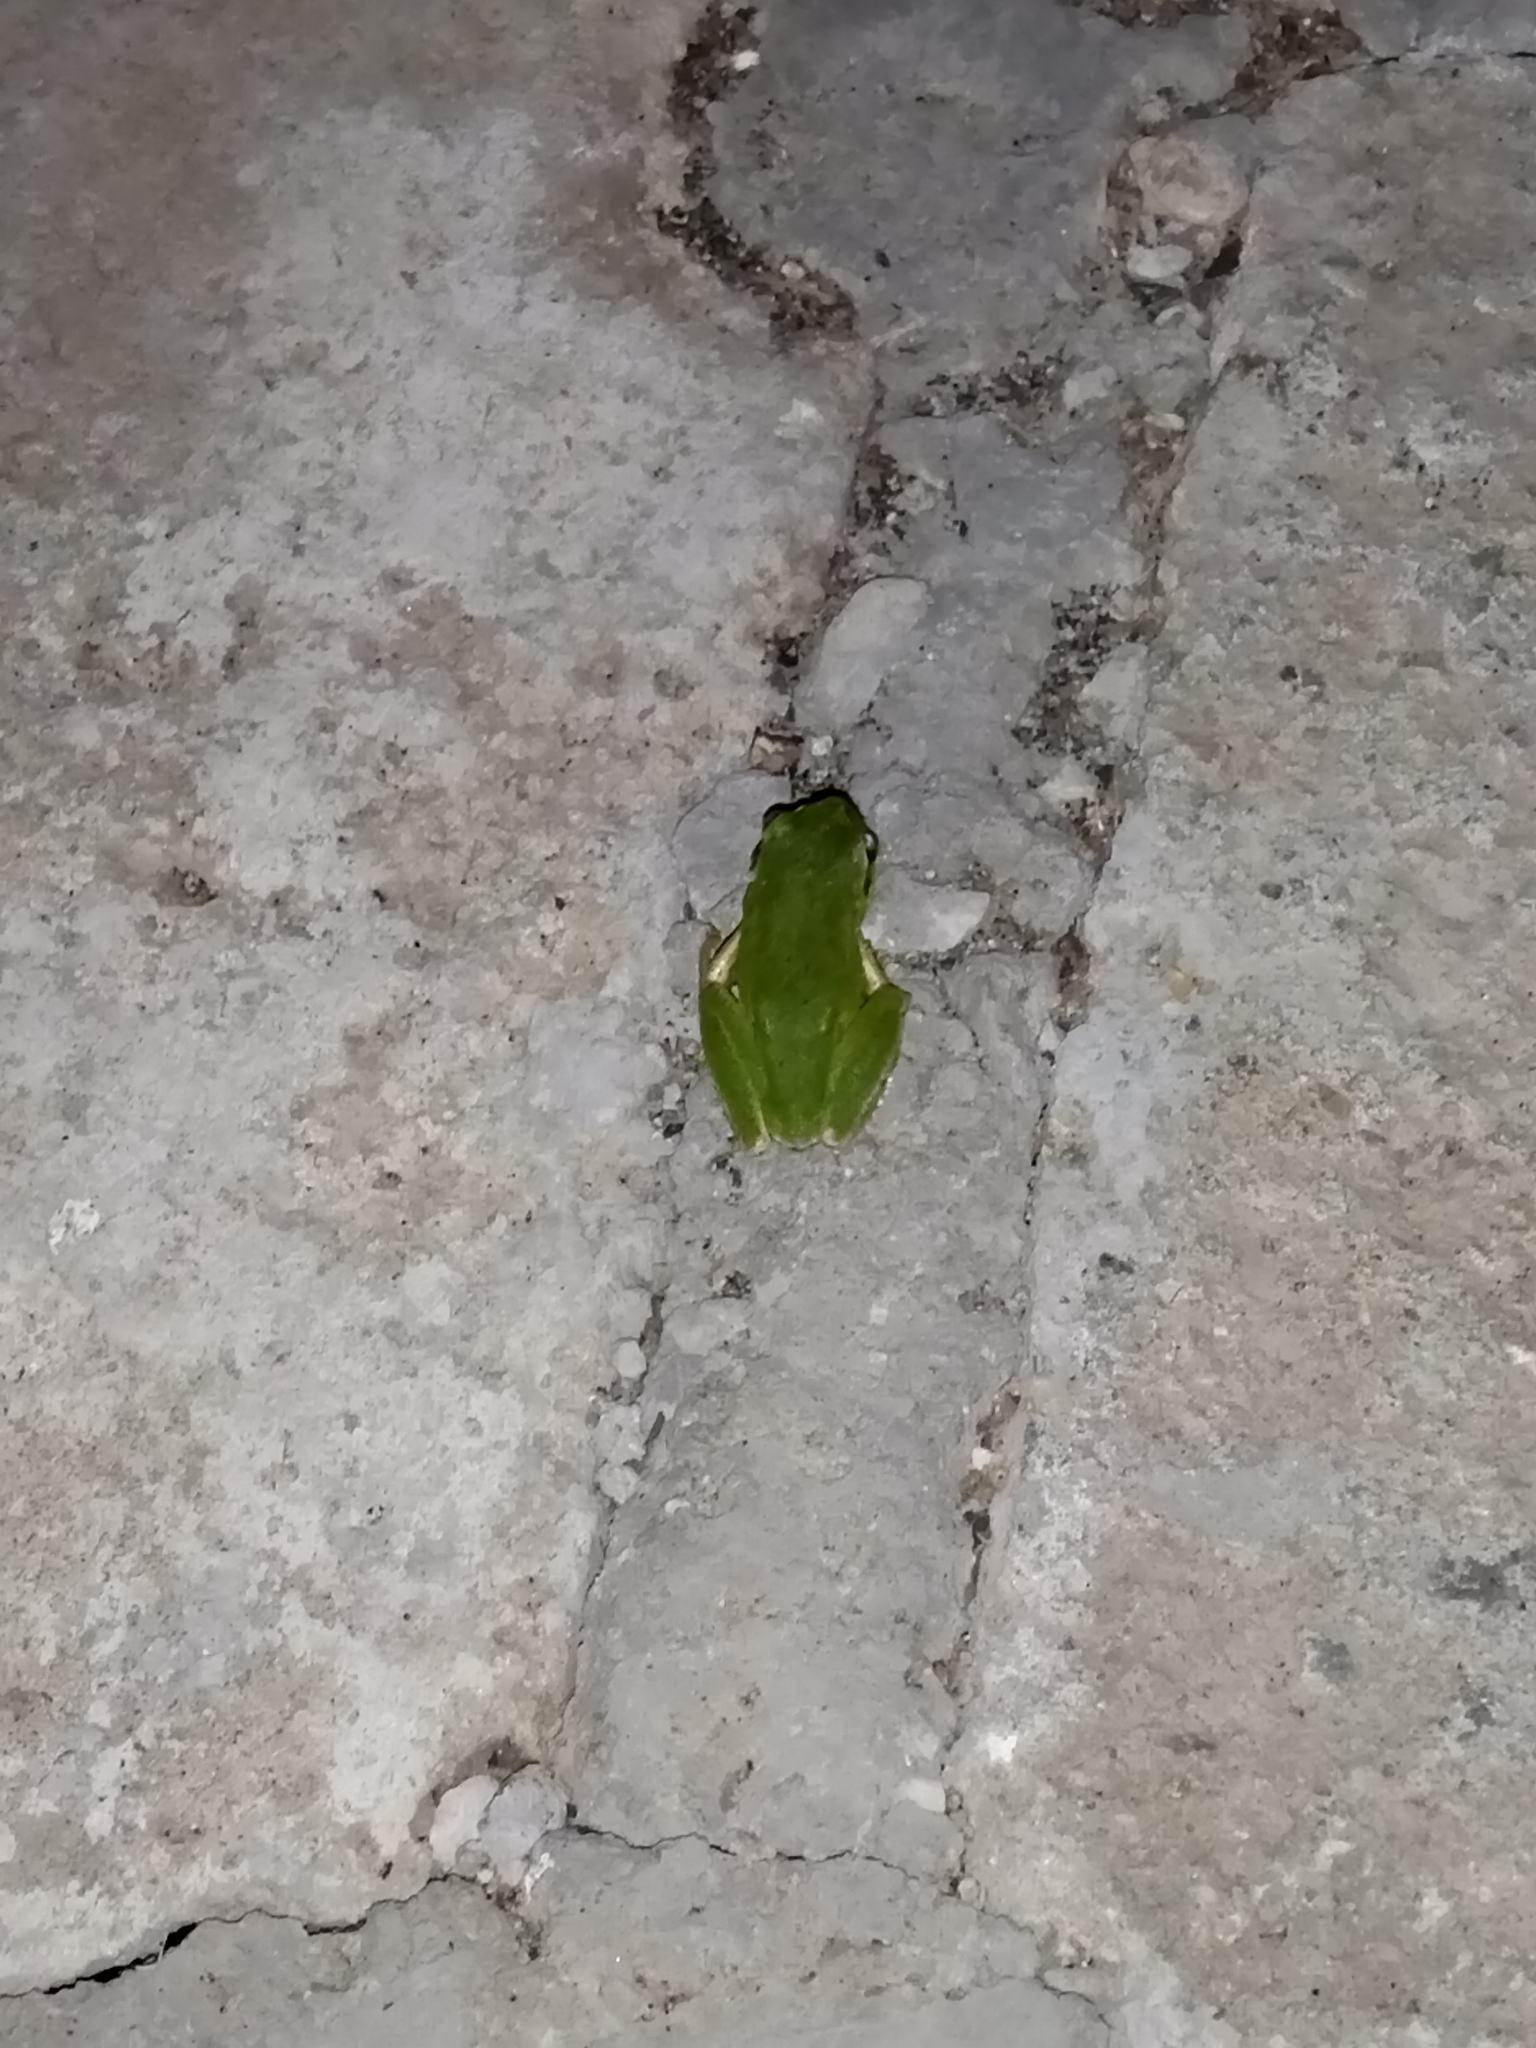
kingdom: Animalia
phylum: Chordata
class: Amphibia
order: Anura
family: Hylidae
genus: Hyla
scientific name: Hyla orientalis
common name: Caucasian treefrog
